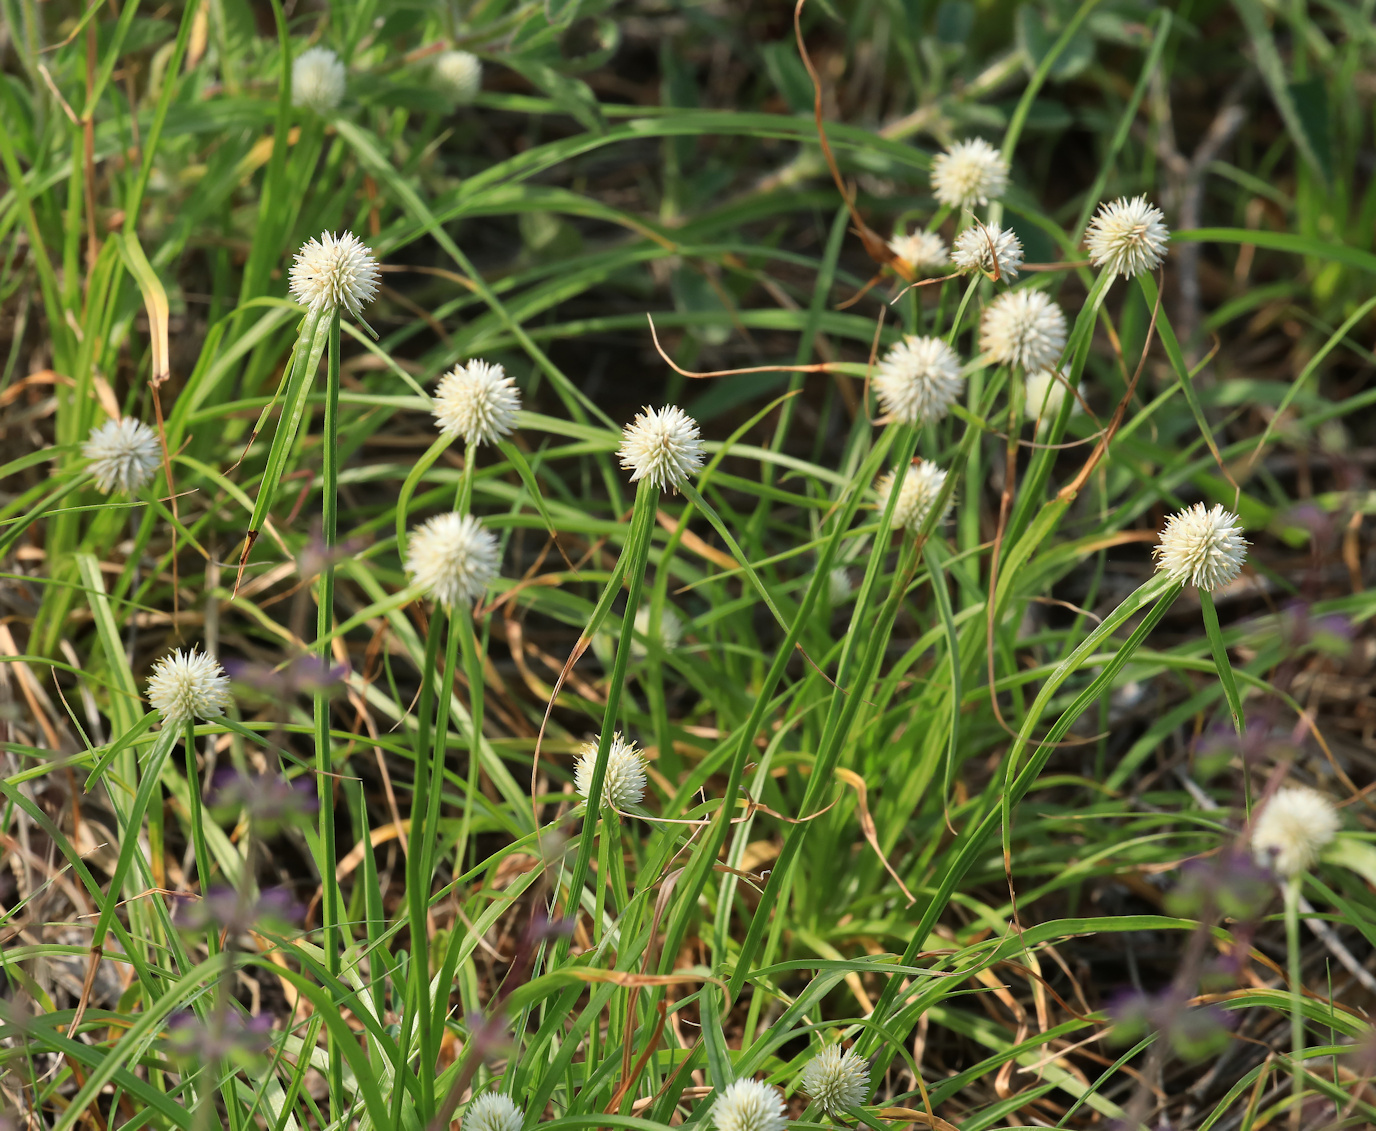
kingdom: Plantae
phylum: Tracheophyta
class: Liliopsida
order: Poales
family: Cyperaceae
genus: Cyperus
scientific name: Cyperus alatus
